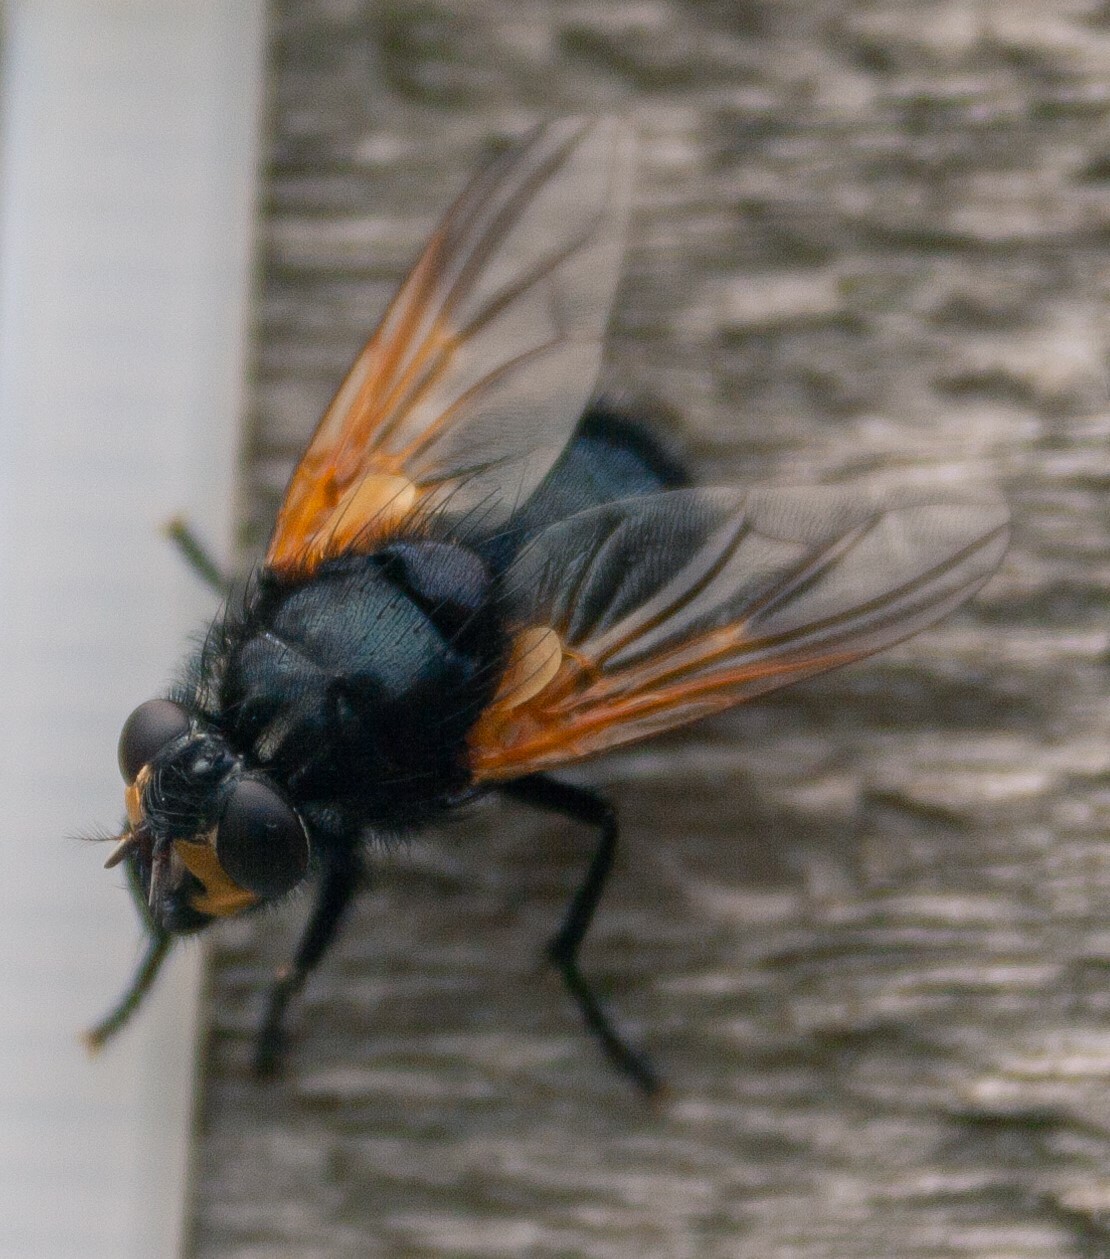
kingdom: Animalia
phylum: Arthropoda
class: Insecta
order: Diptera
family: Muscidae
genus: Mesembrina
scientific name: Mesembrina meridiana
